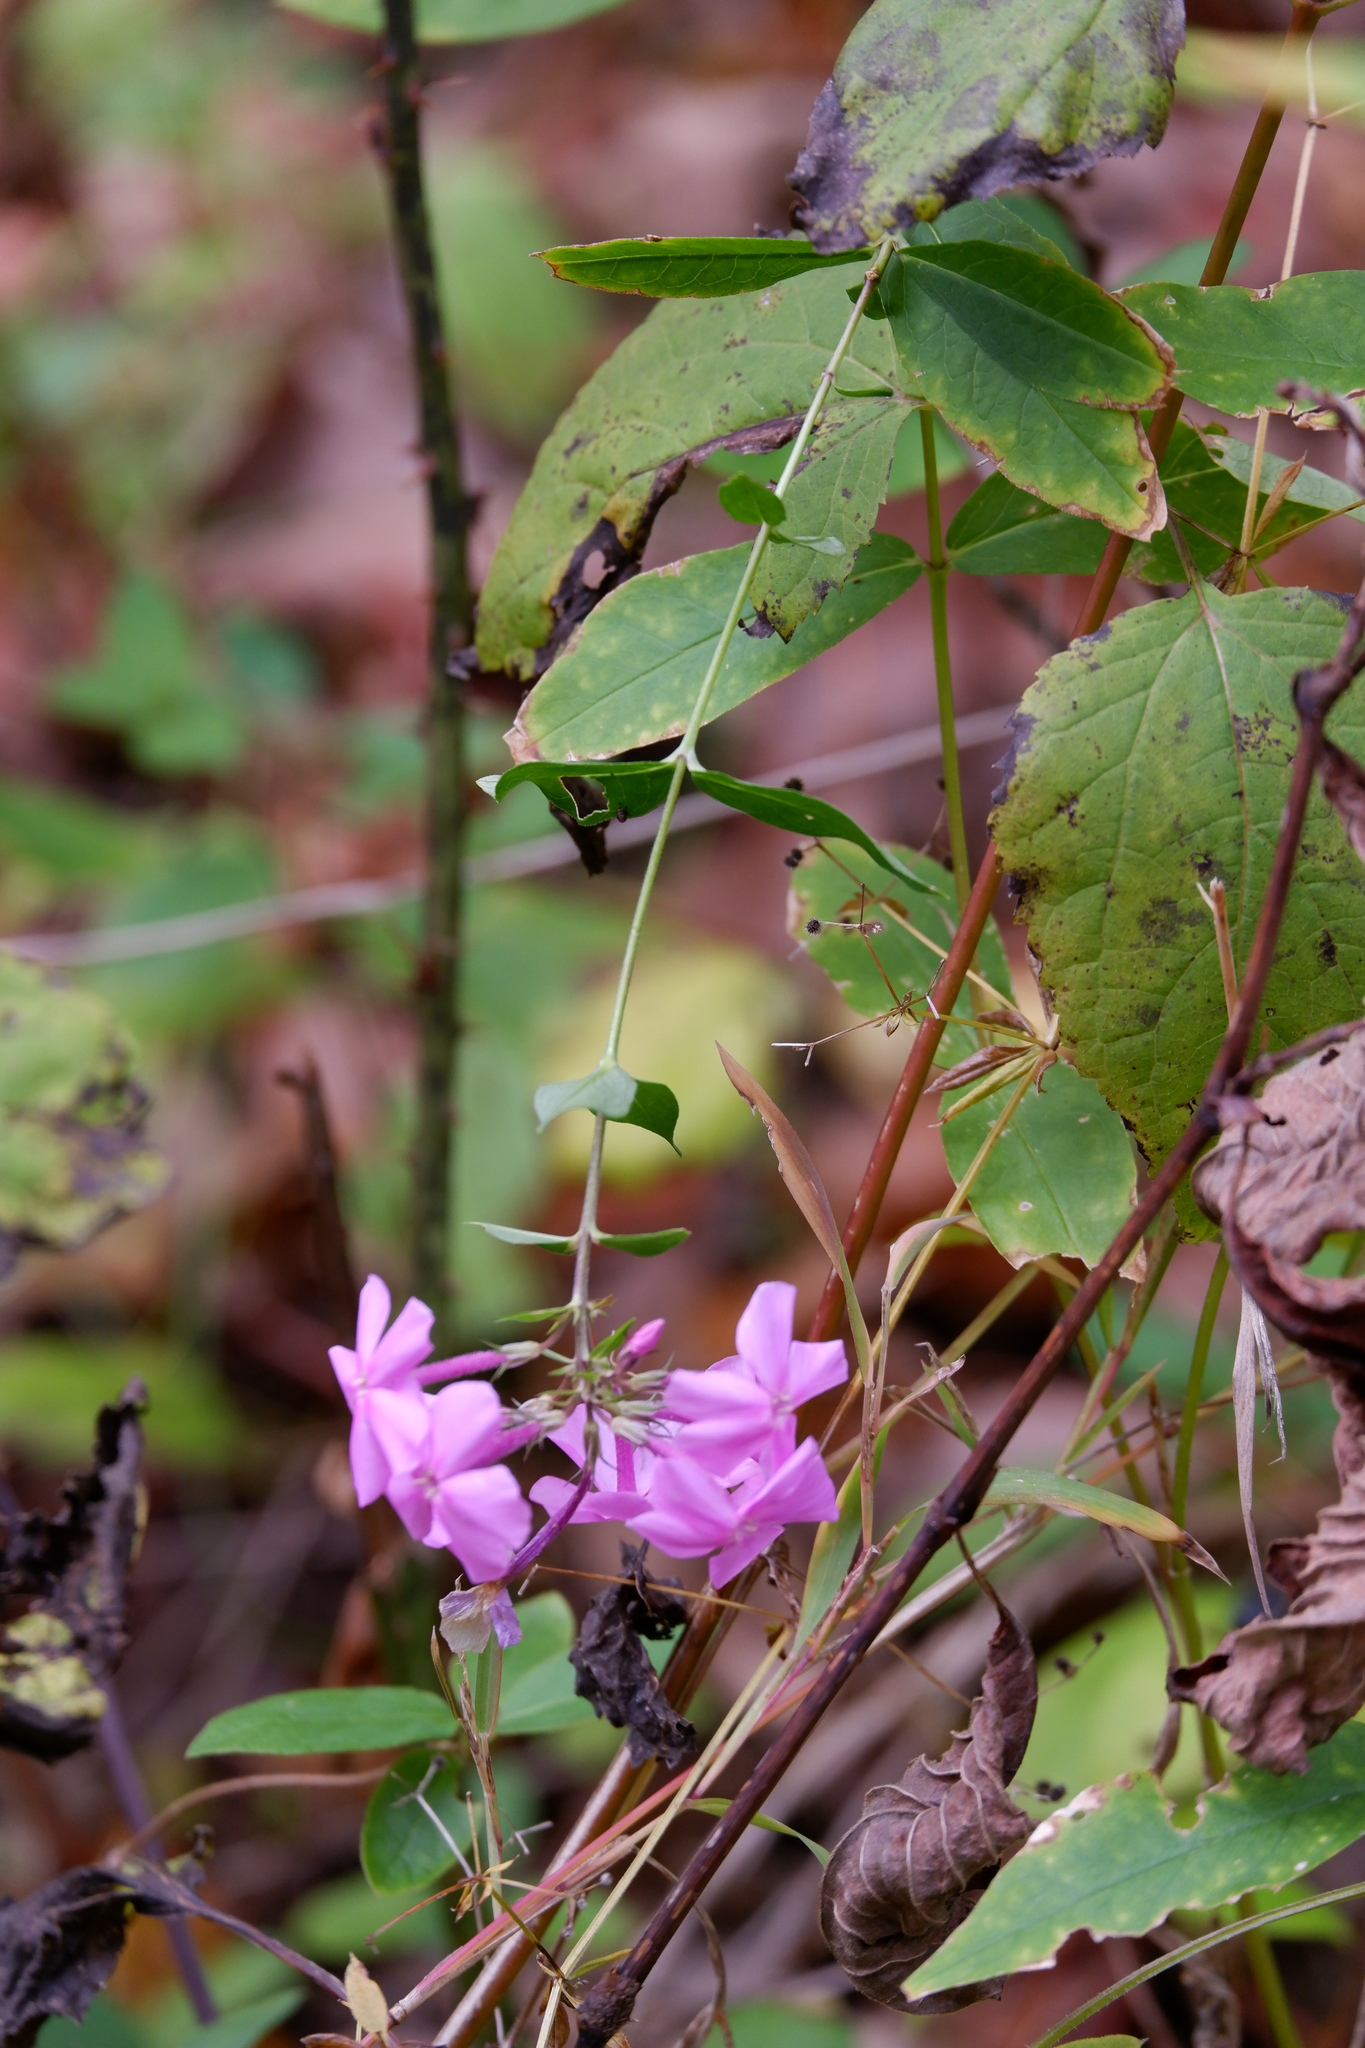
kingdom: Plantae
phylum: Tracheophyta
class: Magnoliopsida
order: Ericales
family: Polemoniaceae
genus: Phlox
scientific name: Phlox paniculata
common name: Fall phlox
